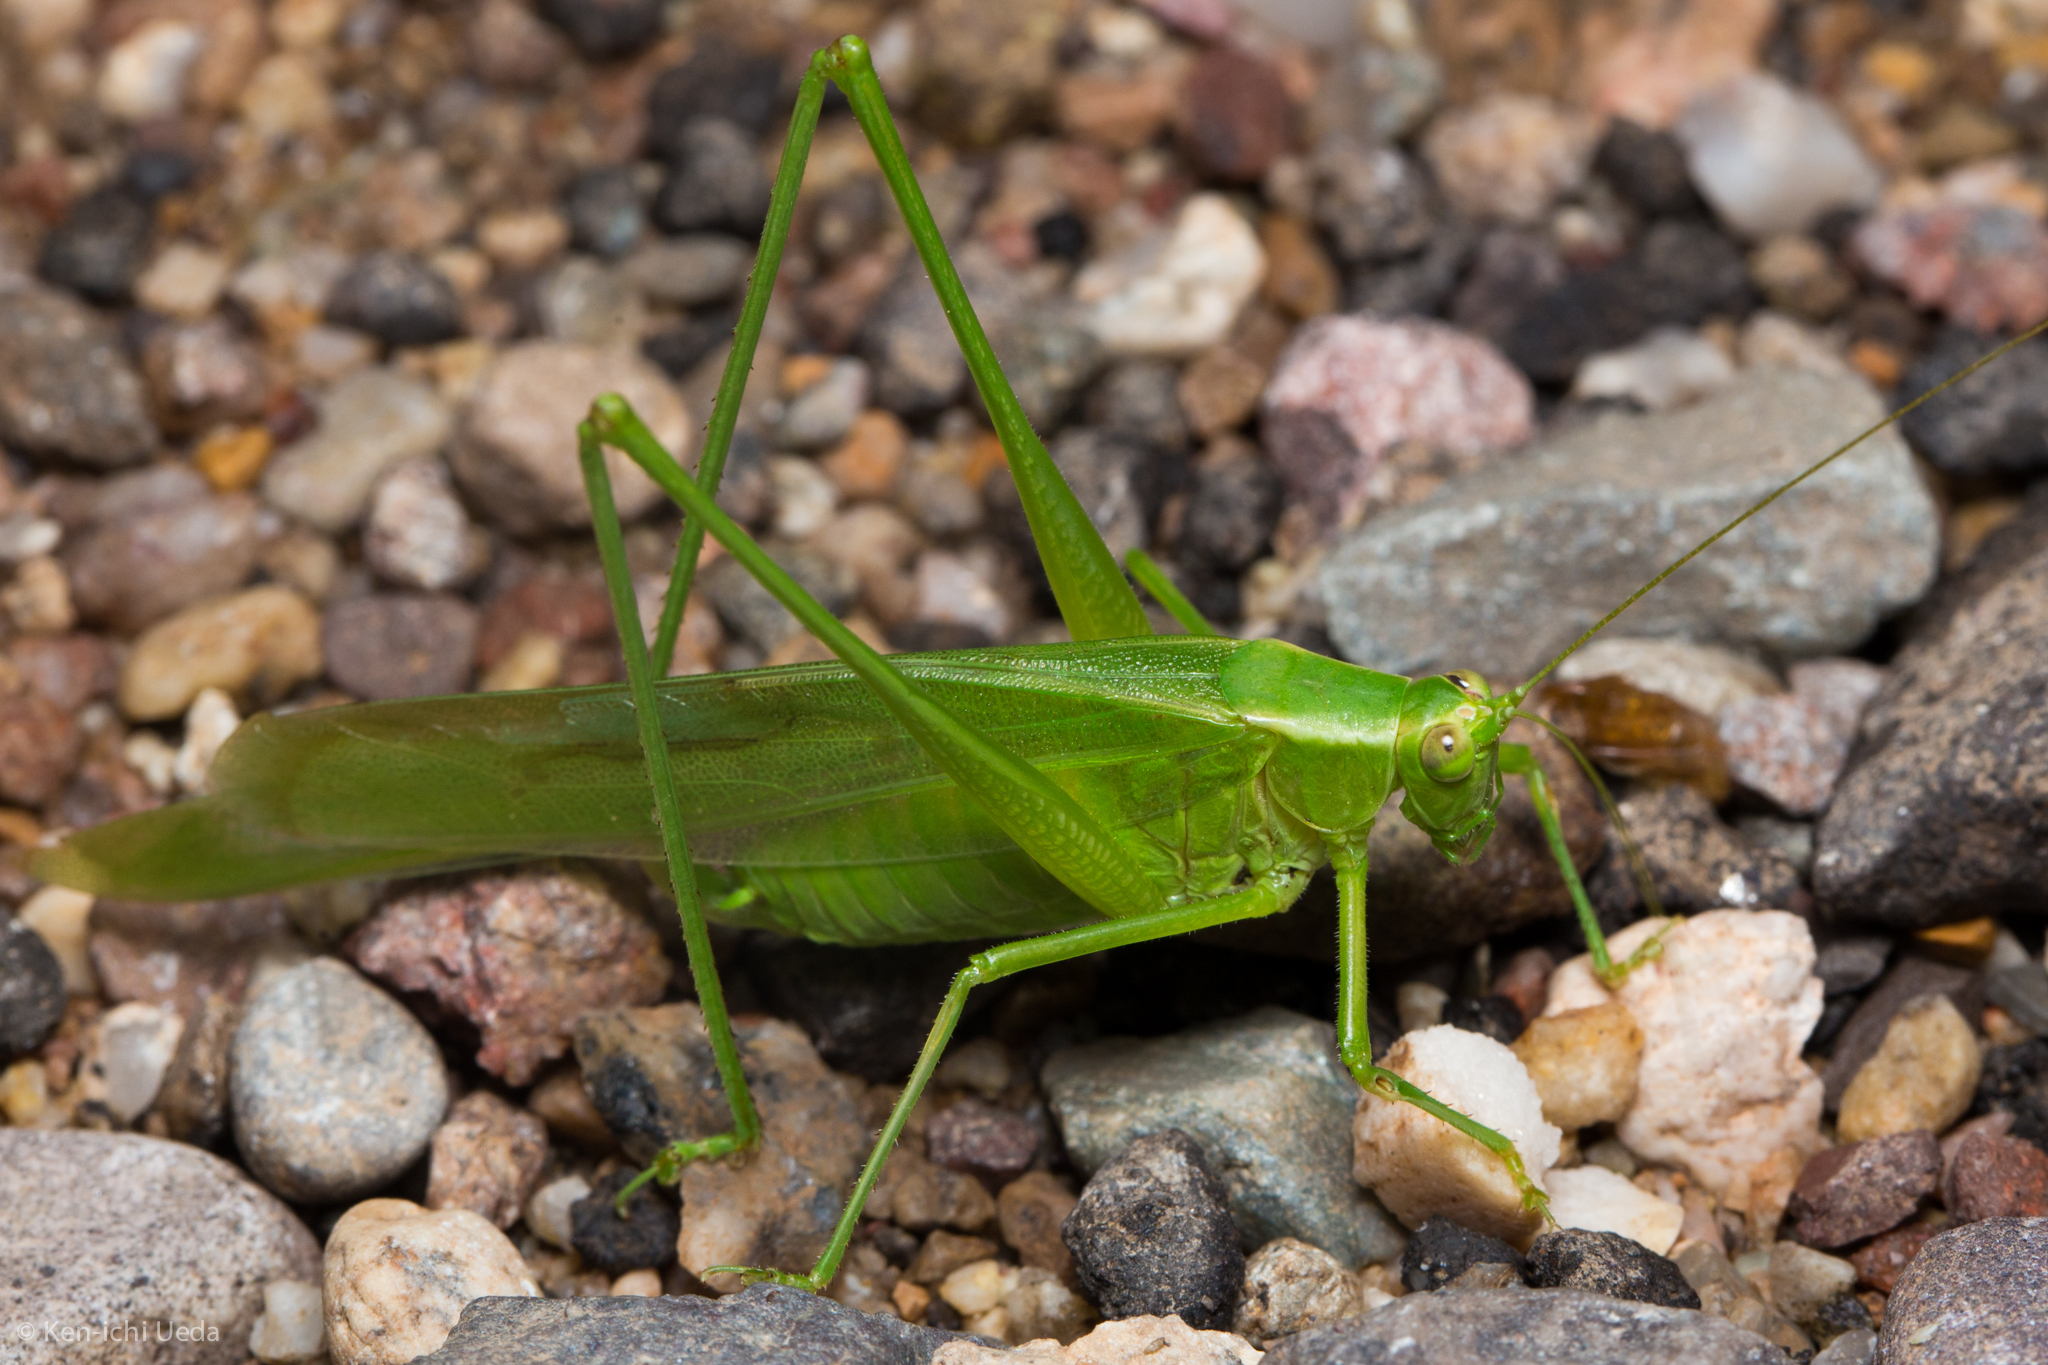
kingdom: Animalia
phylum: Arthropoda
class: Insecta
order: Orthoptera
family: Tettigoniidae
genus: Scudderia
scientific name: Scudderia mexicana
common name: Mexican bush katydid
